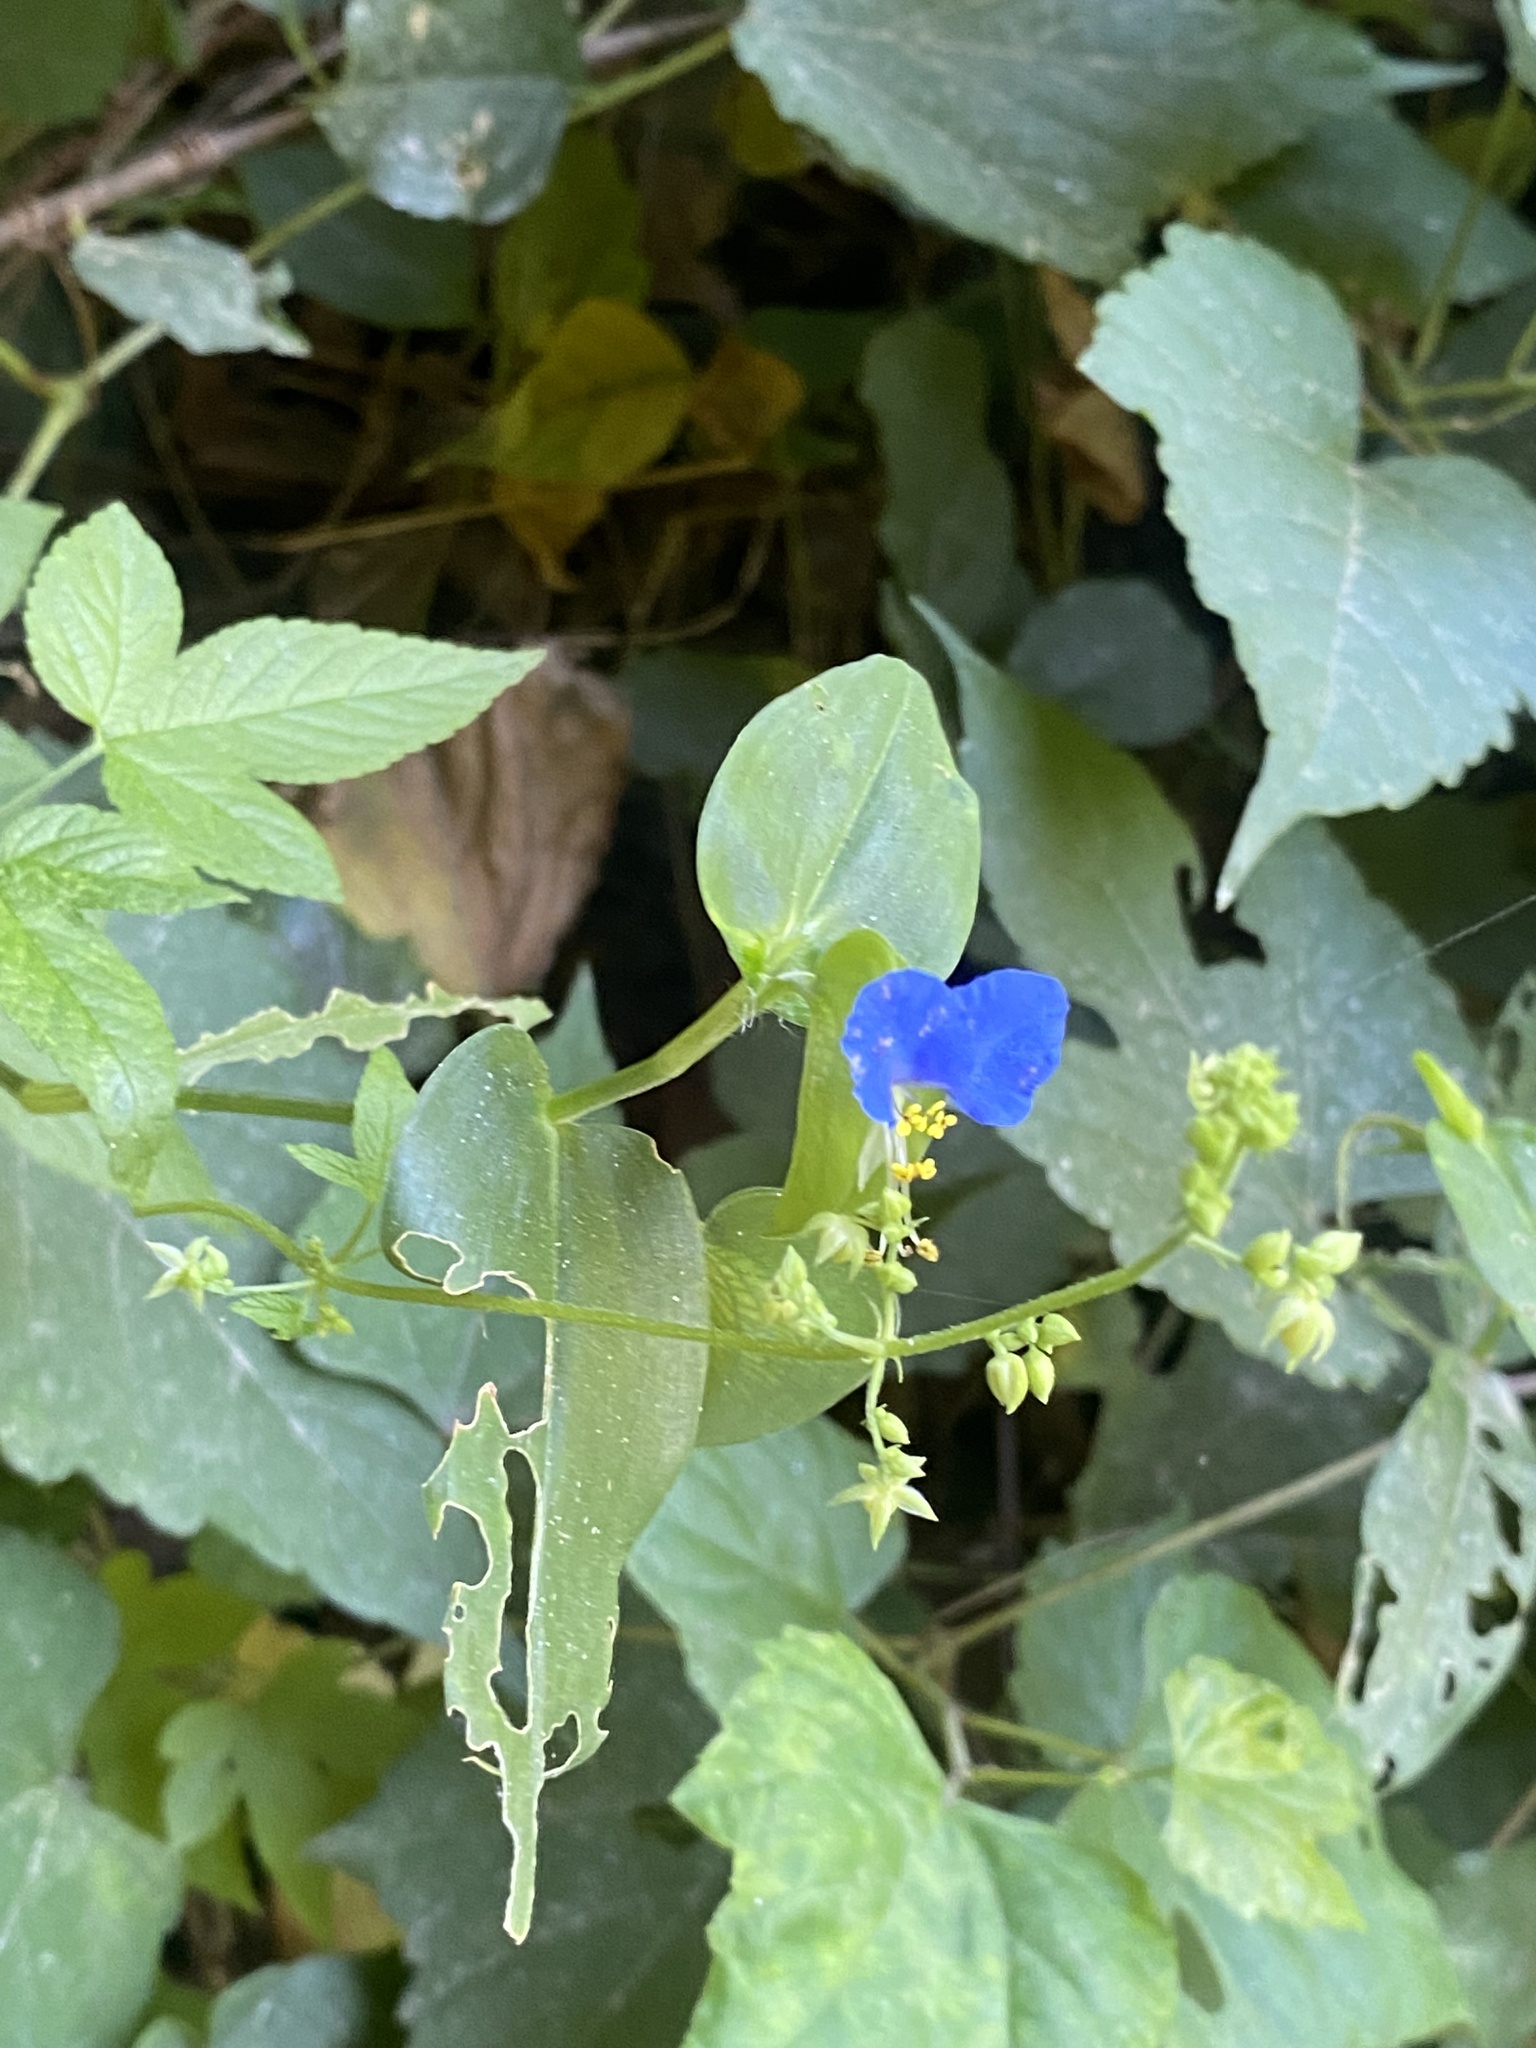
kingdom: Plantae
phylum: Tracheophyta
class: Liliopsida
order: Commelinales
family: Commelinaceae
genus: Commelina
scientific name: Commelina communis
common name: Asiatic dayflower
